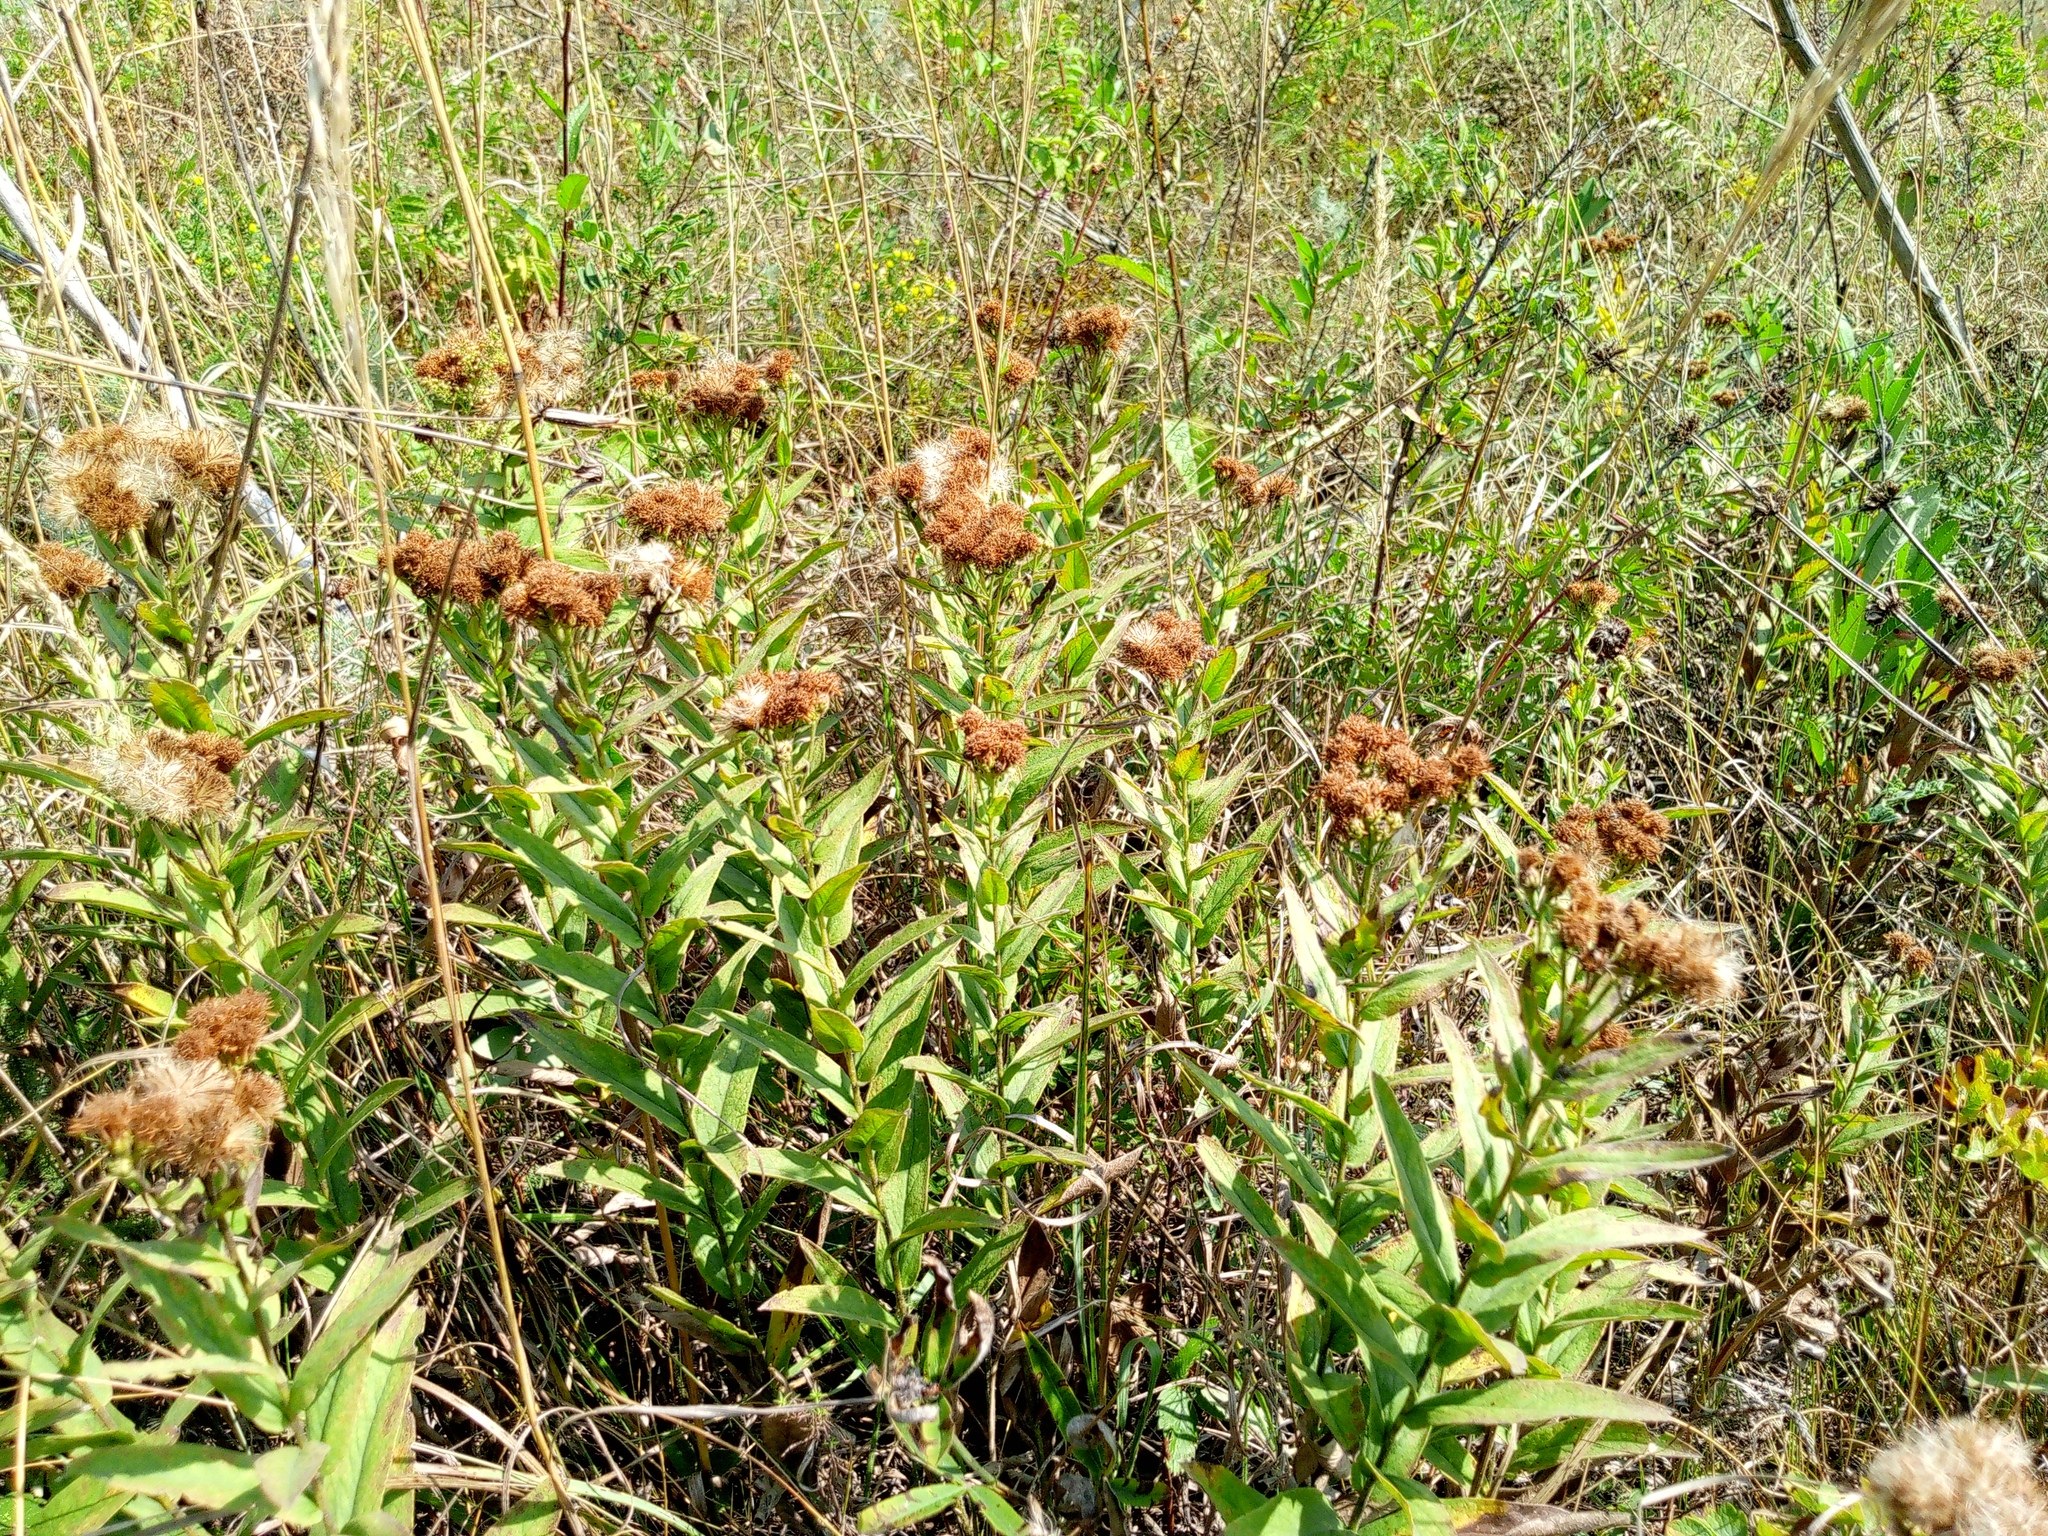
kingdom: Plantae
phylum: Tracheophyta
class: Magnoliopsida
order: Asterales
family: Asteraceae
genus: Pentanema
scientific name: Pentanema germanicum
